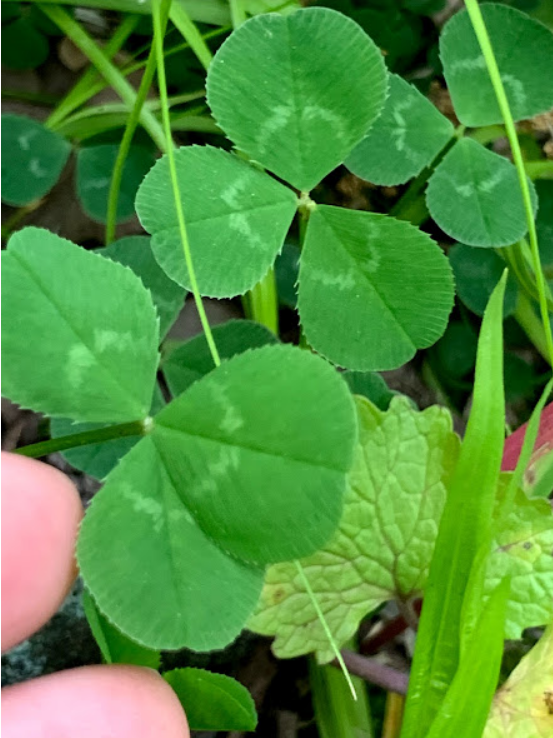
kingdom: Plantae
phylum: Tracheophyta
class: Magnoliopsida
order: Fabales
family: Fabaceae
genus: Trifolium
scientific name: Trifolium repens
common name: White clover
